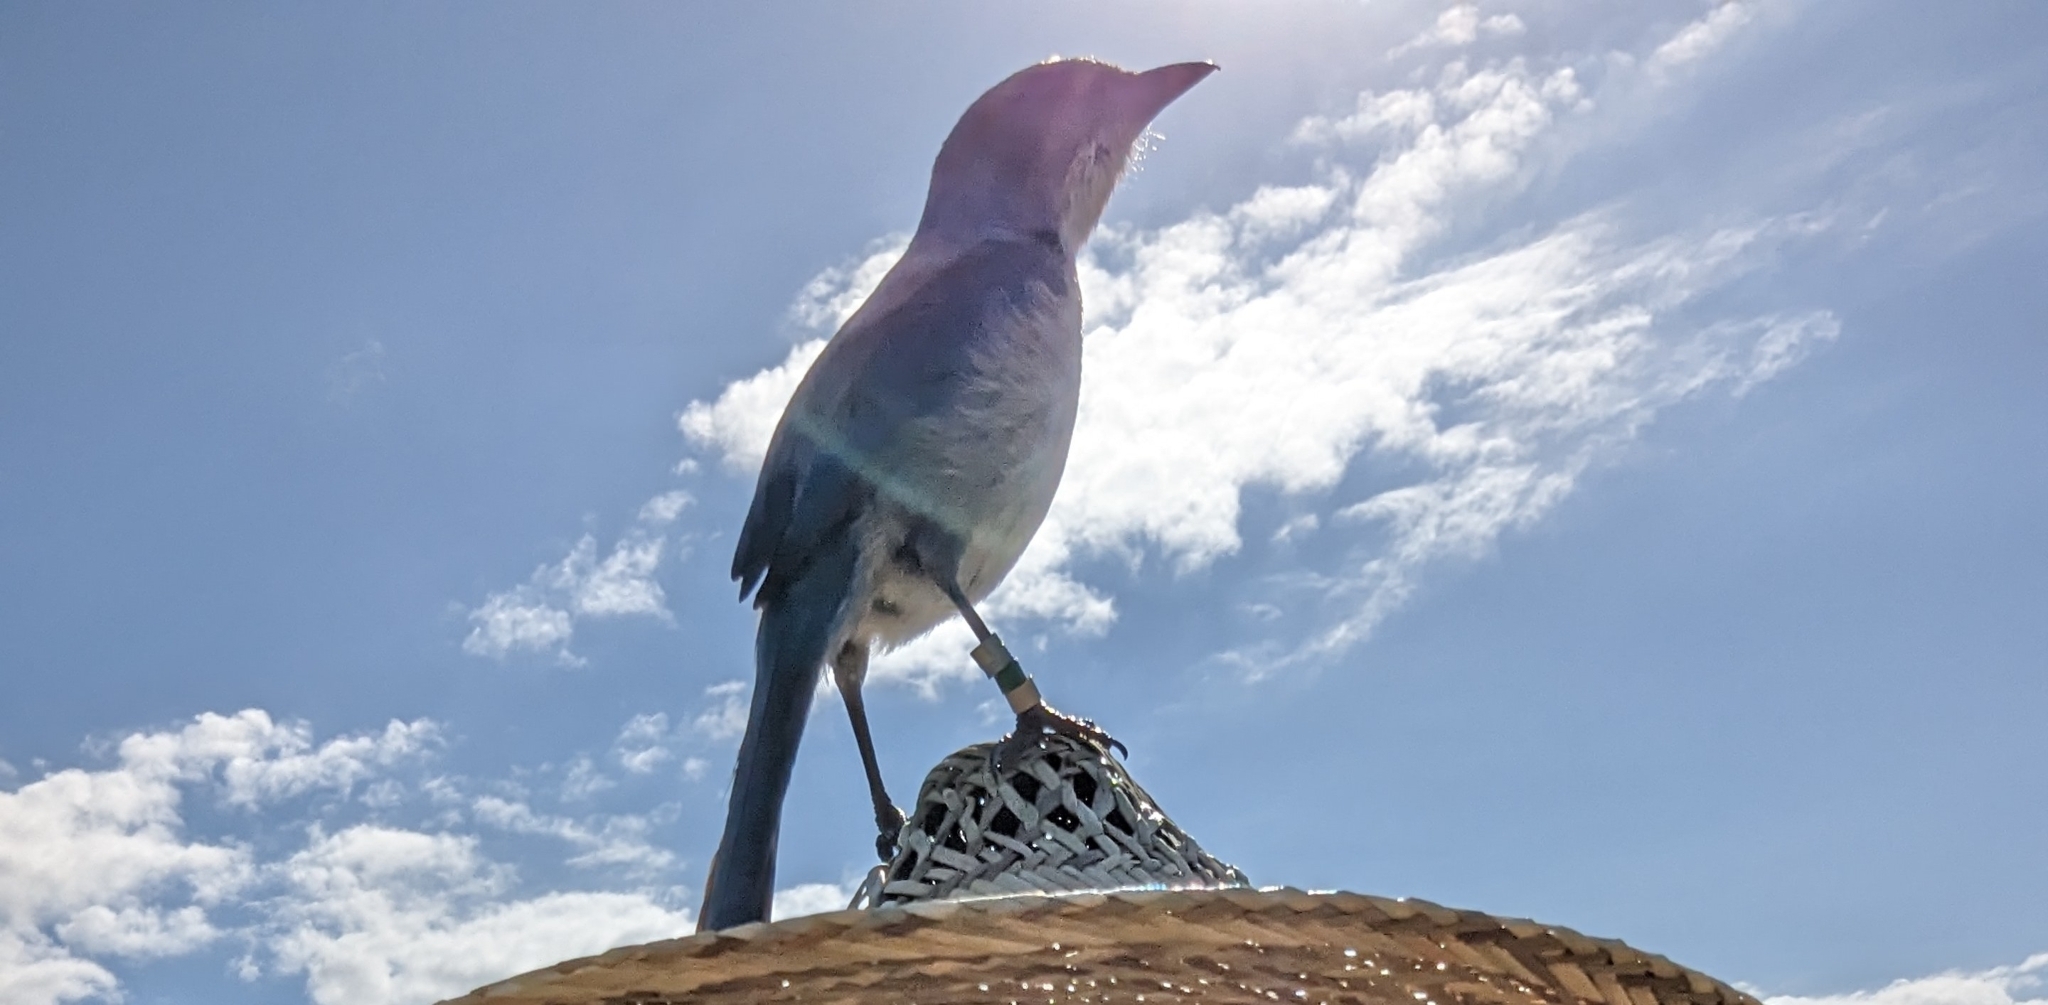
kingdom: Animalia
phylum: Chordata
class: Aves
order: Passeriformes
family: Corvidae
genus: Aphelocoma
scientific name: Aphelocoma coerulescens
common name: Florida scrub jay
